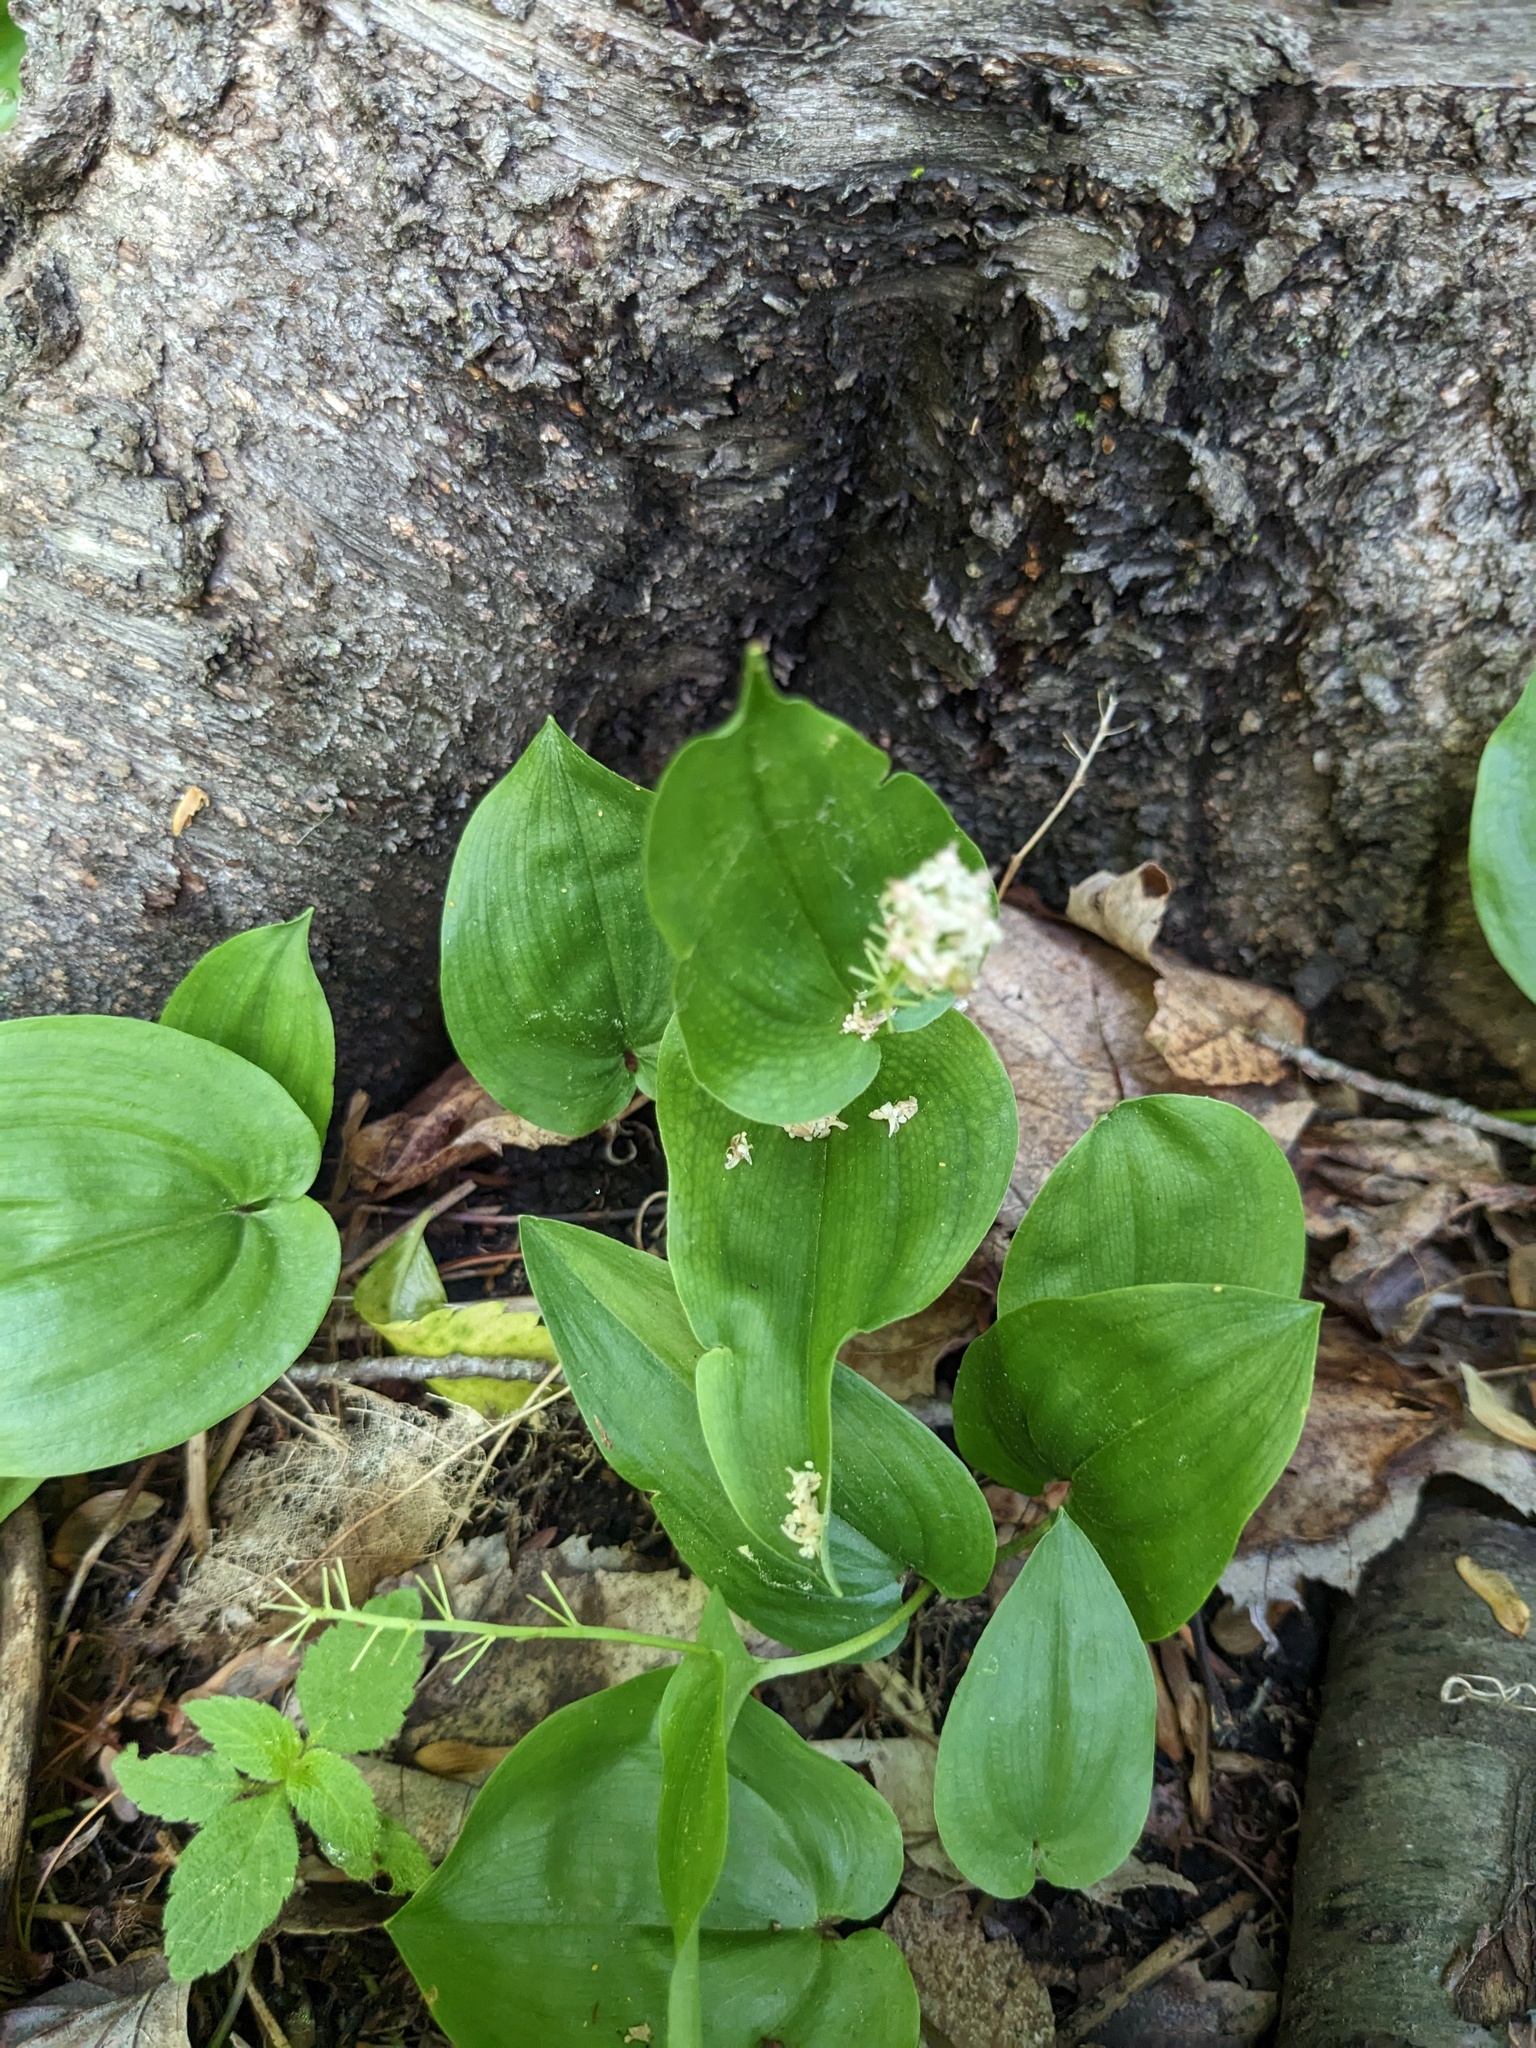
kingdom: Plantae
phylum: Tracheophyta
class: Liliopsida
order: Asparagales
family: Asparagaceae
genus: Maianthemum
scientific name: Maianthemum canadense
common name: False lily-of-the-valley
